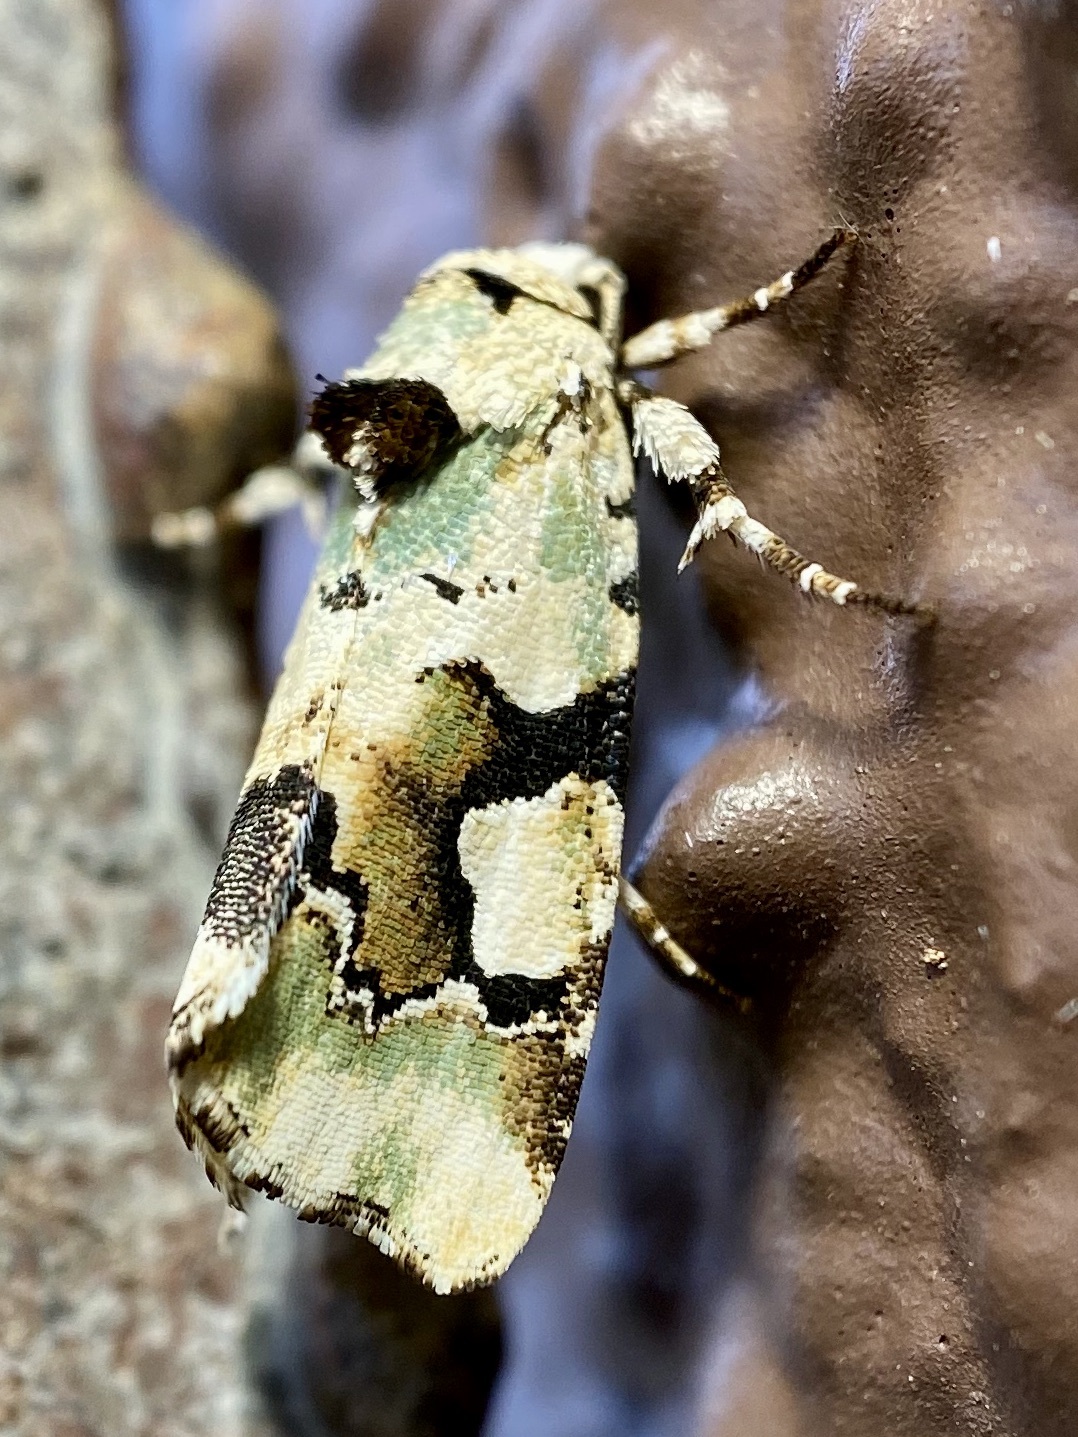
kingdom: Animalia
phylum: Arthropoda
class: Insecta
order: Lepidoptera
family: Noctuidae
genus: Emarginea
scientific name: Emarginea percara
